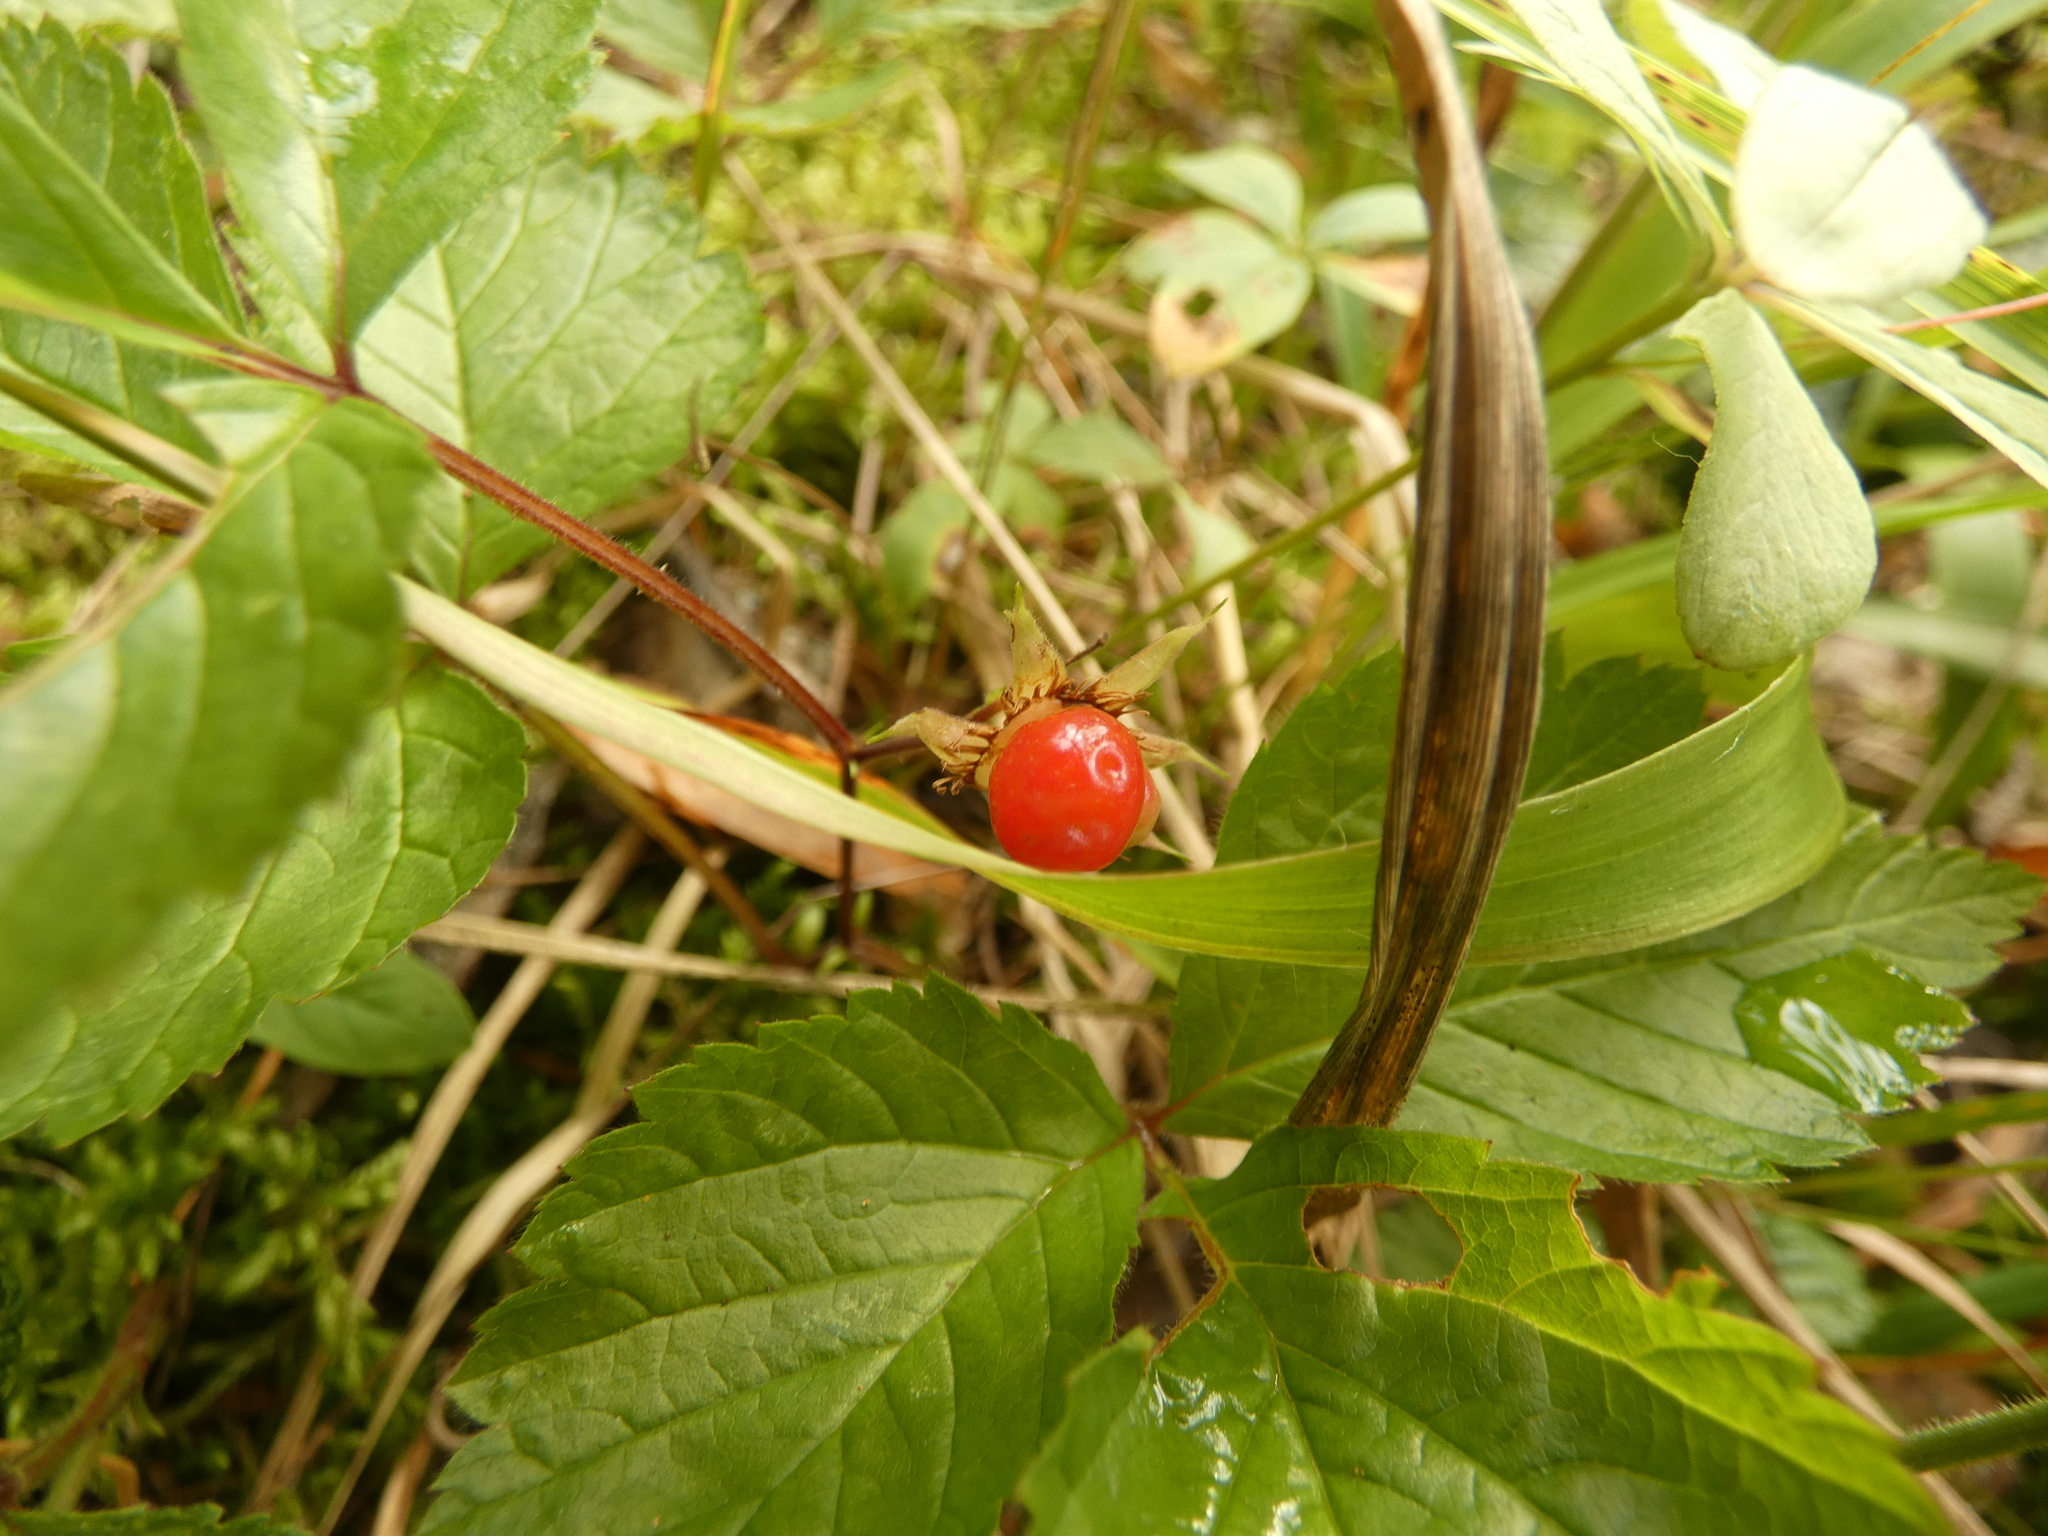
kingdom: Plantae
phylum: Tracheophyta
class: Magnoliopsida
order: Rosales
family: Rosaceae
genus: Rubus
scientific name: Rubus saxatilis
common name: Stone bramble
